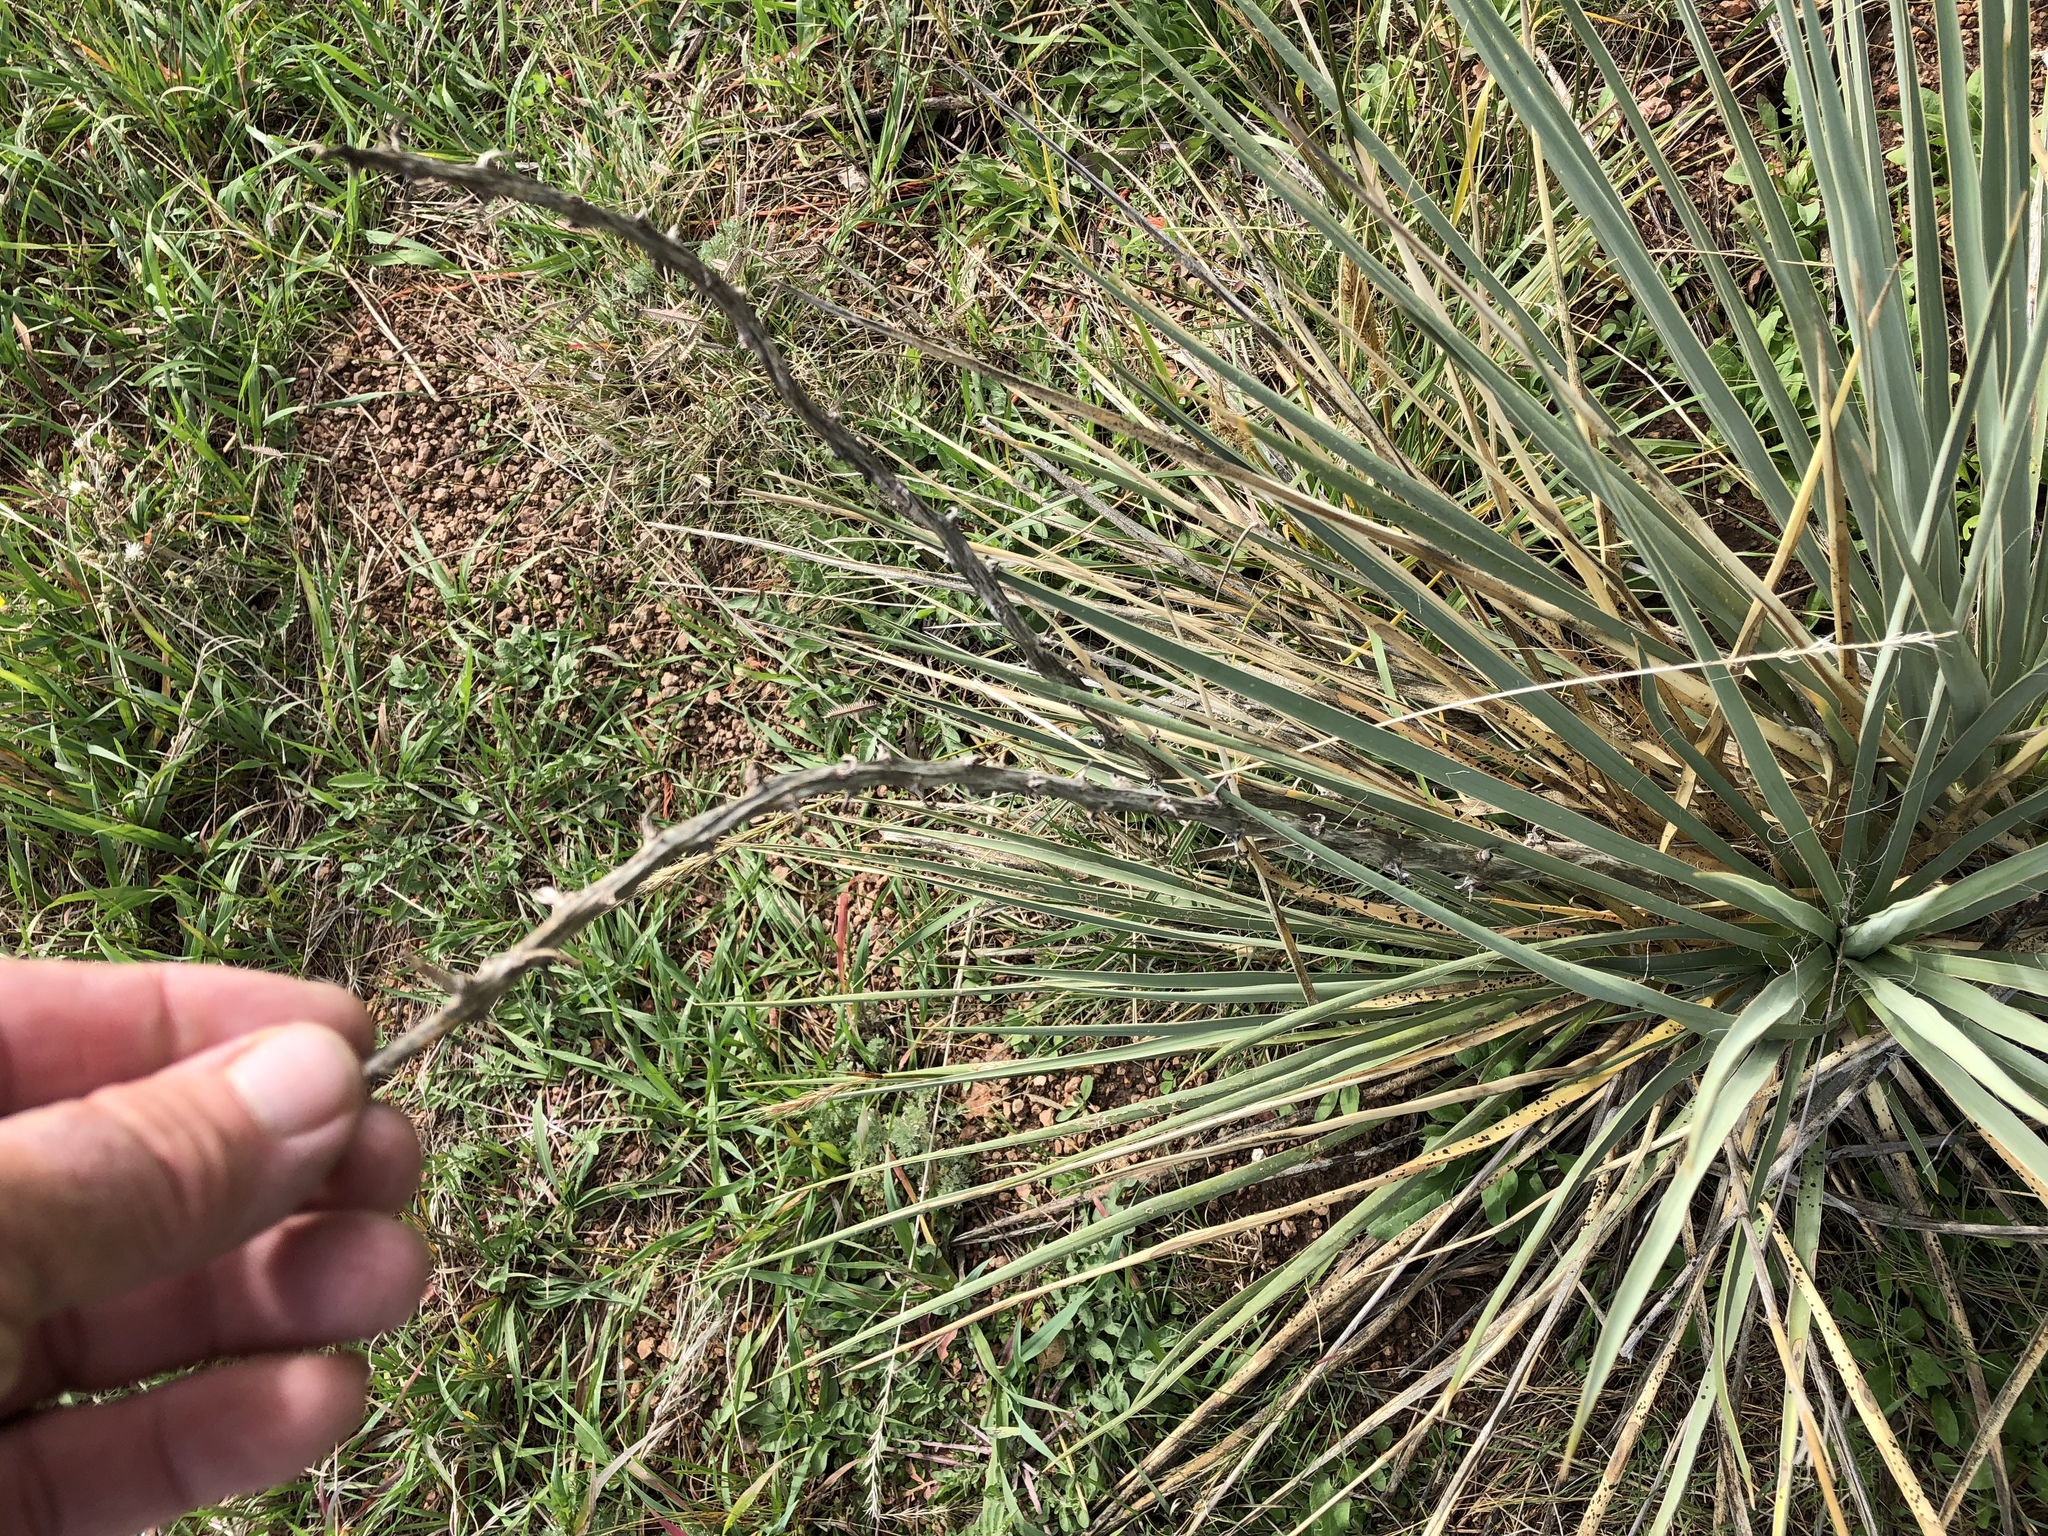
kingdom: Plantae
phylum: Tracheophyta
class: Liliopsida
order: Asparagales
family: Asparagaceae
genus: Yucca
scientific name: Yucca glauca
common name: Great plains yucca
